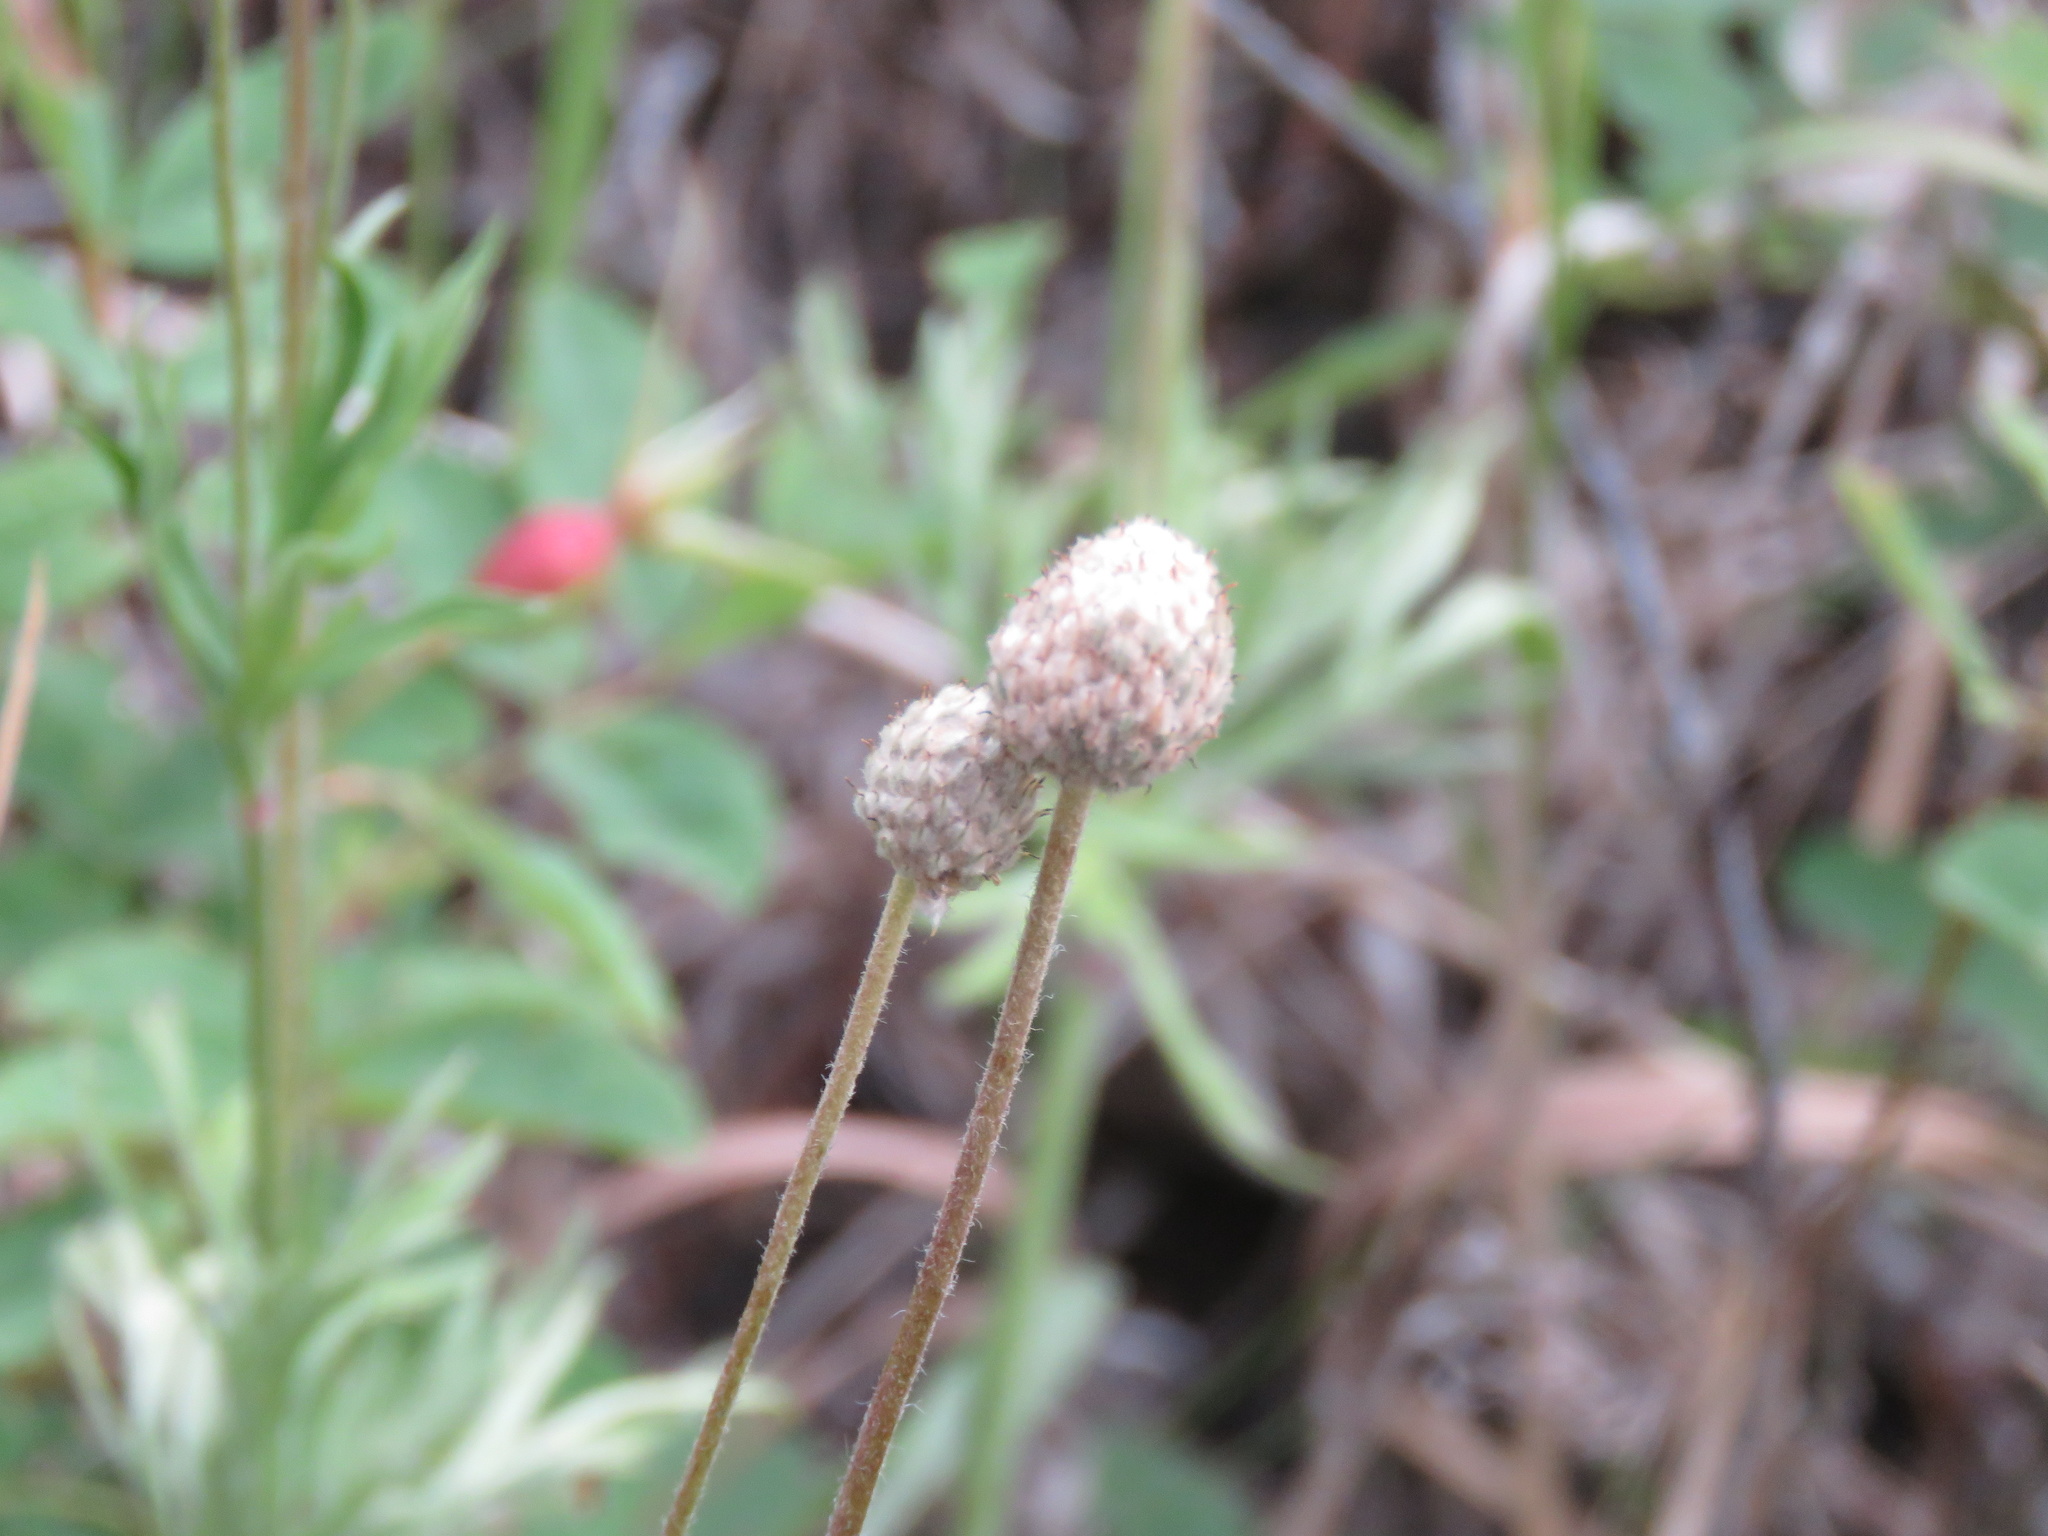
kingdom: Plantae
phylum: Tracheophyta
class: Magnoliopsida
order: Ranunculales
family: Ranunculaceae
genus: Anemone
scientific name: Anemone multifida
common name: Bird's-foot anemone
